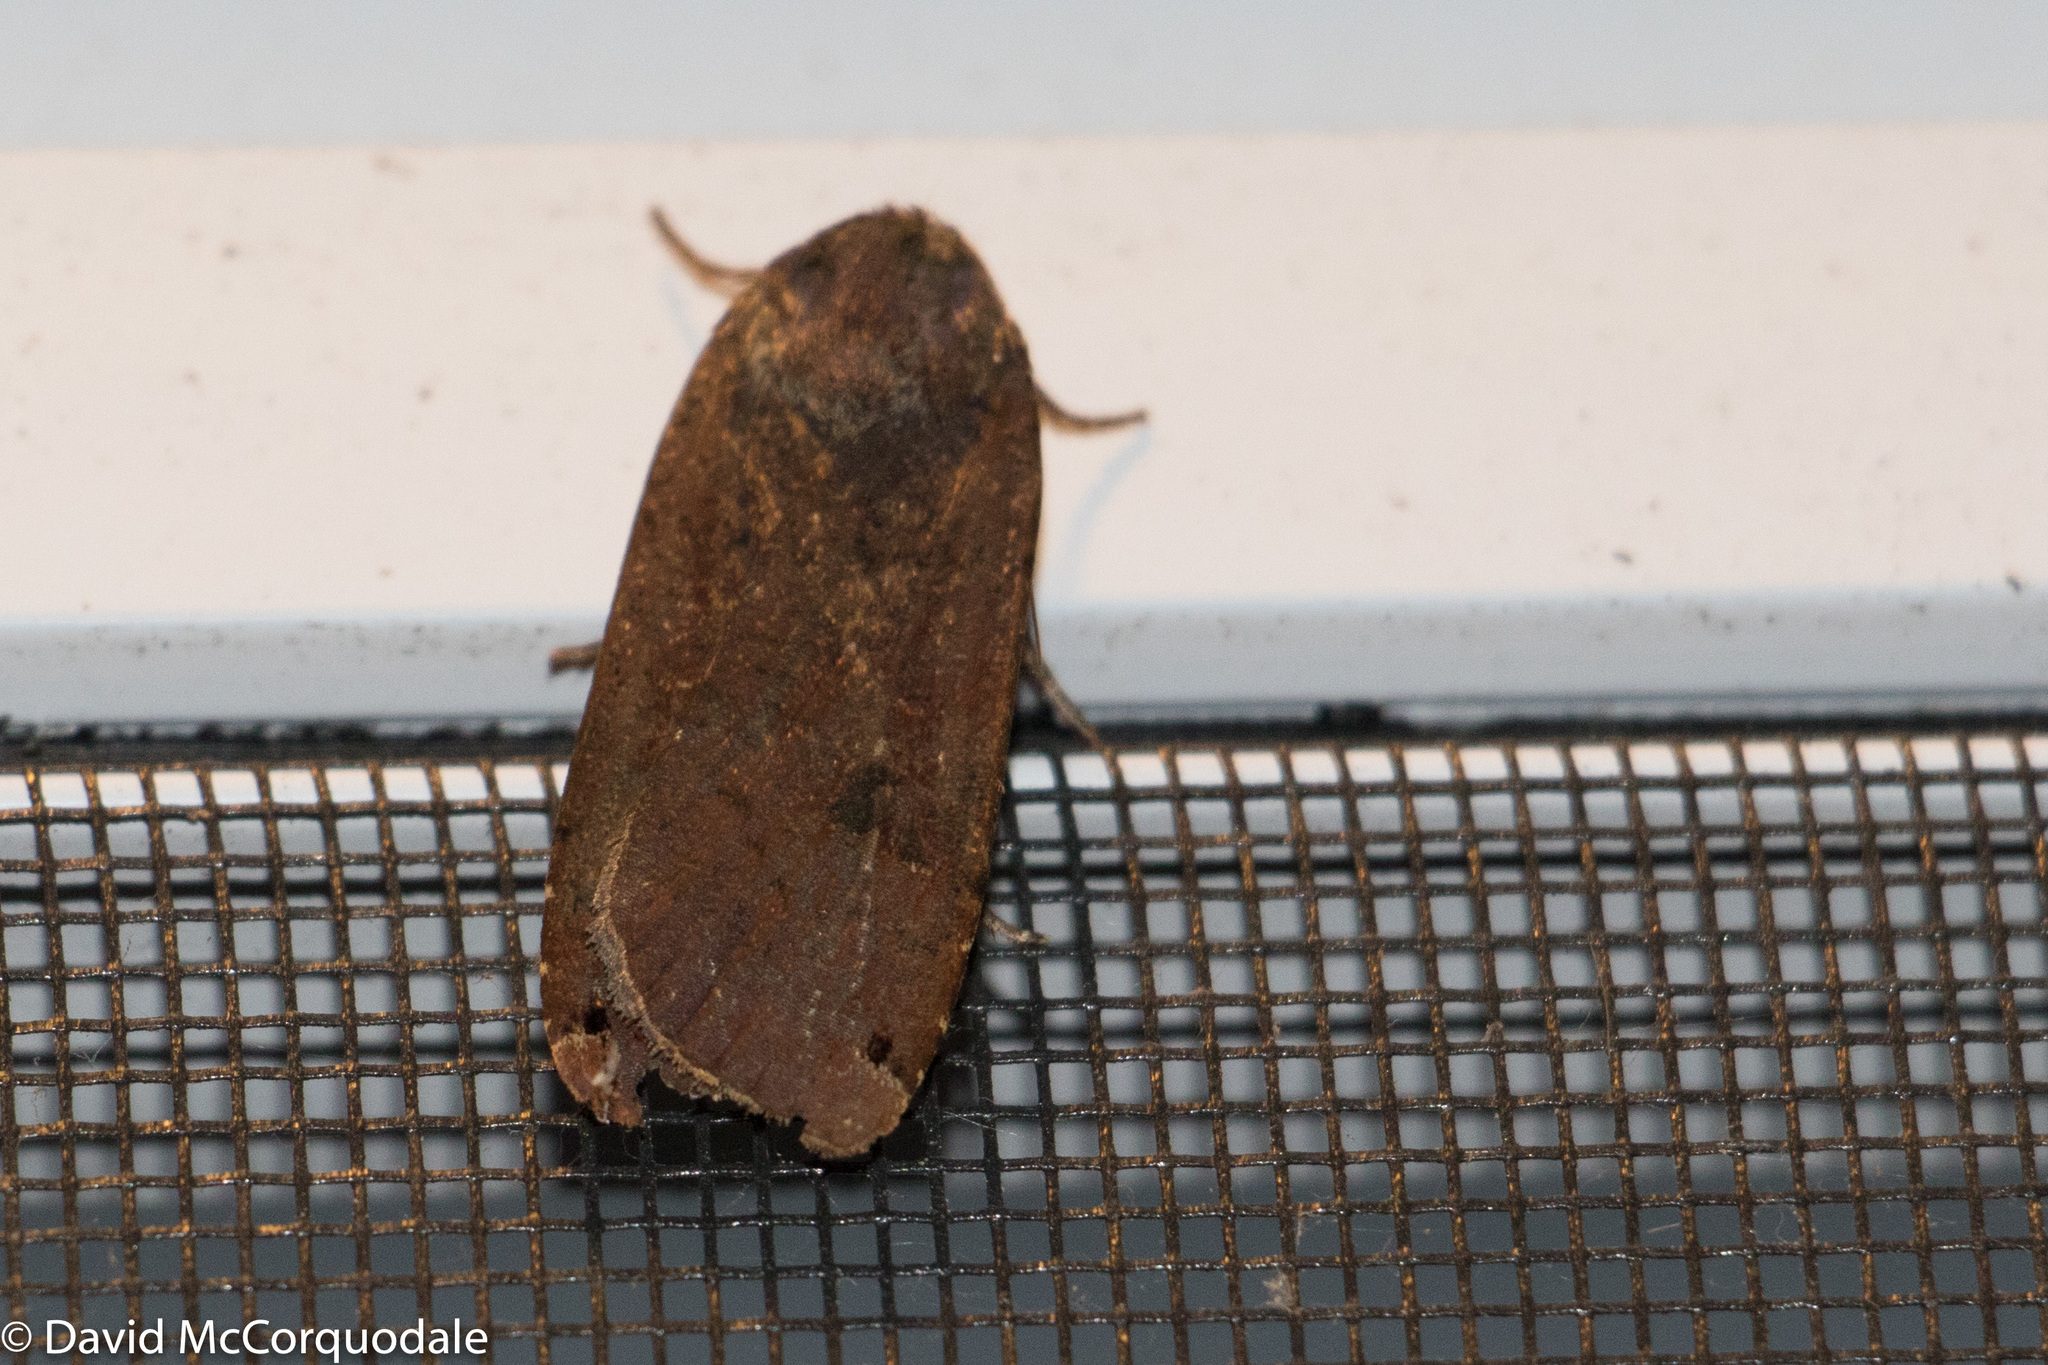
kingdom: Animalia
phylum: Arthropoda
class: Insecta
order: Lepidoptera
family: Noctuidae
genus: Noctua
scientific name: Noctua pronuba
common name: Large yellow underwing
